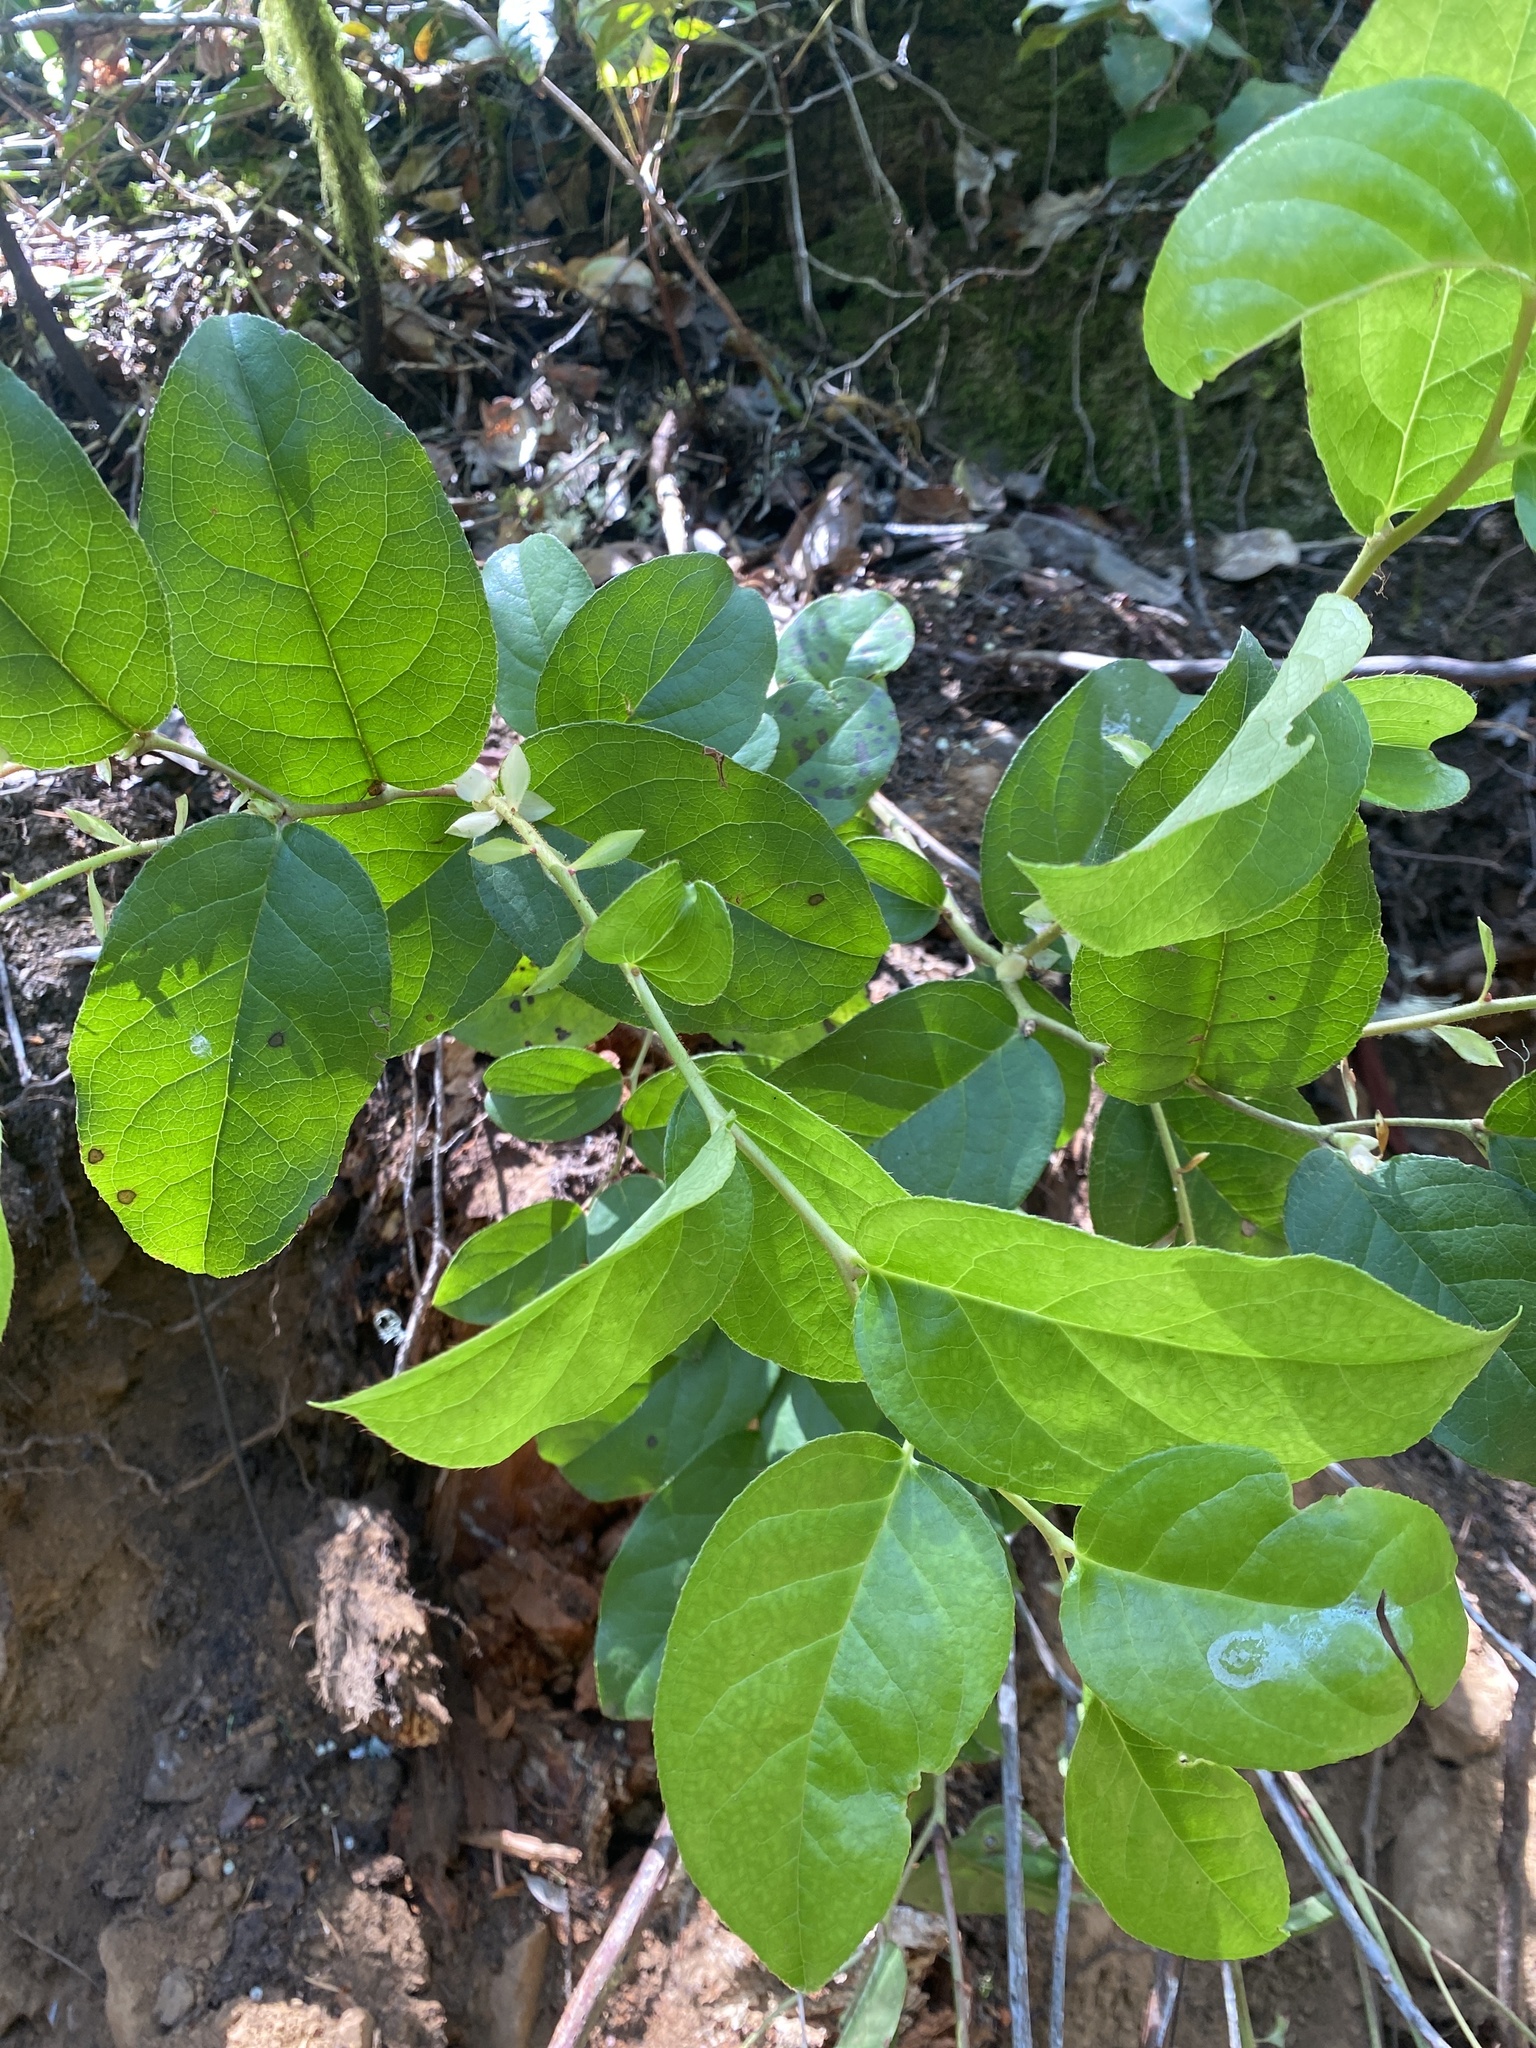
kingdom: Plantae
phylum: Tracheophyta
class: Magnoliopsida
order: Ericales
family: Ericaceae
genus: Gaultheria
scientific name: Gaultheria shallon
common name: Shallon
